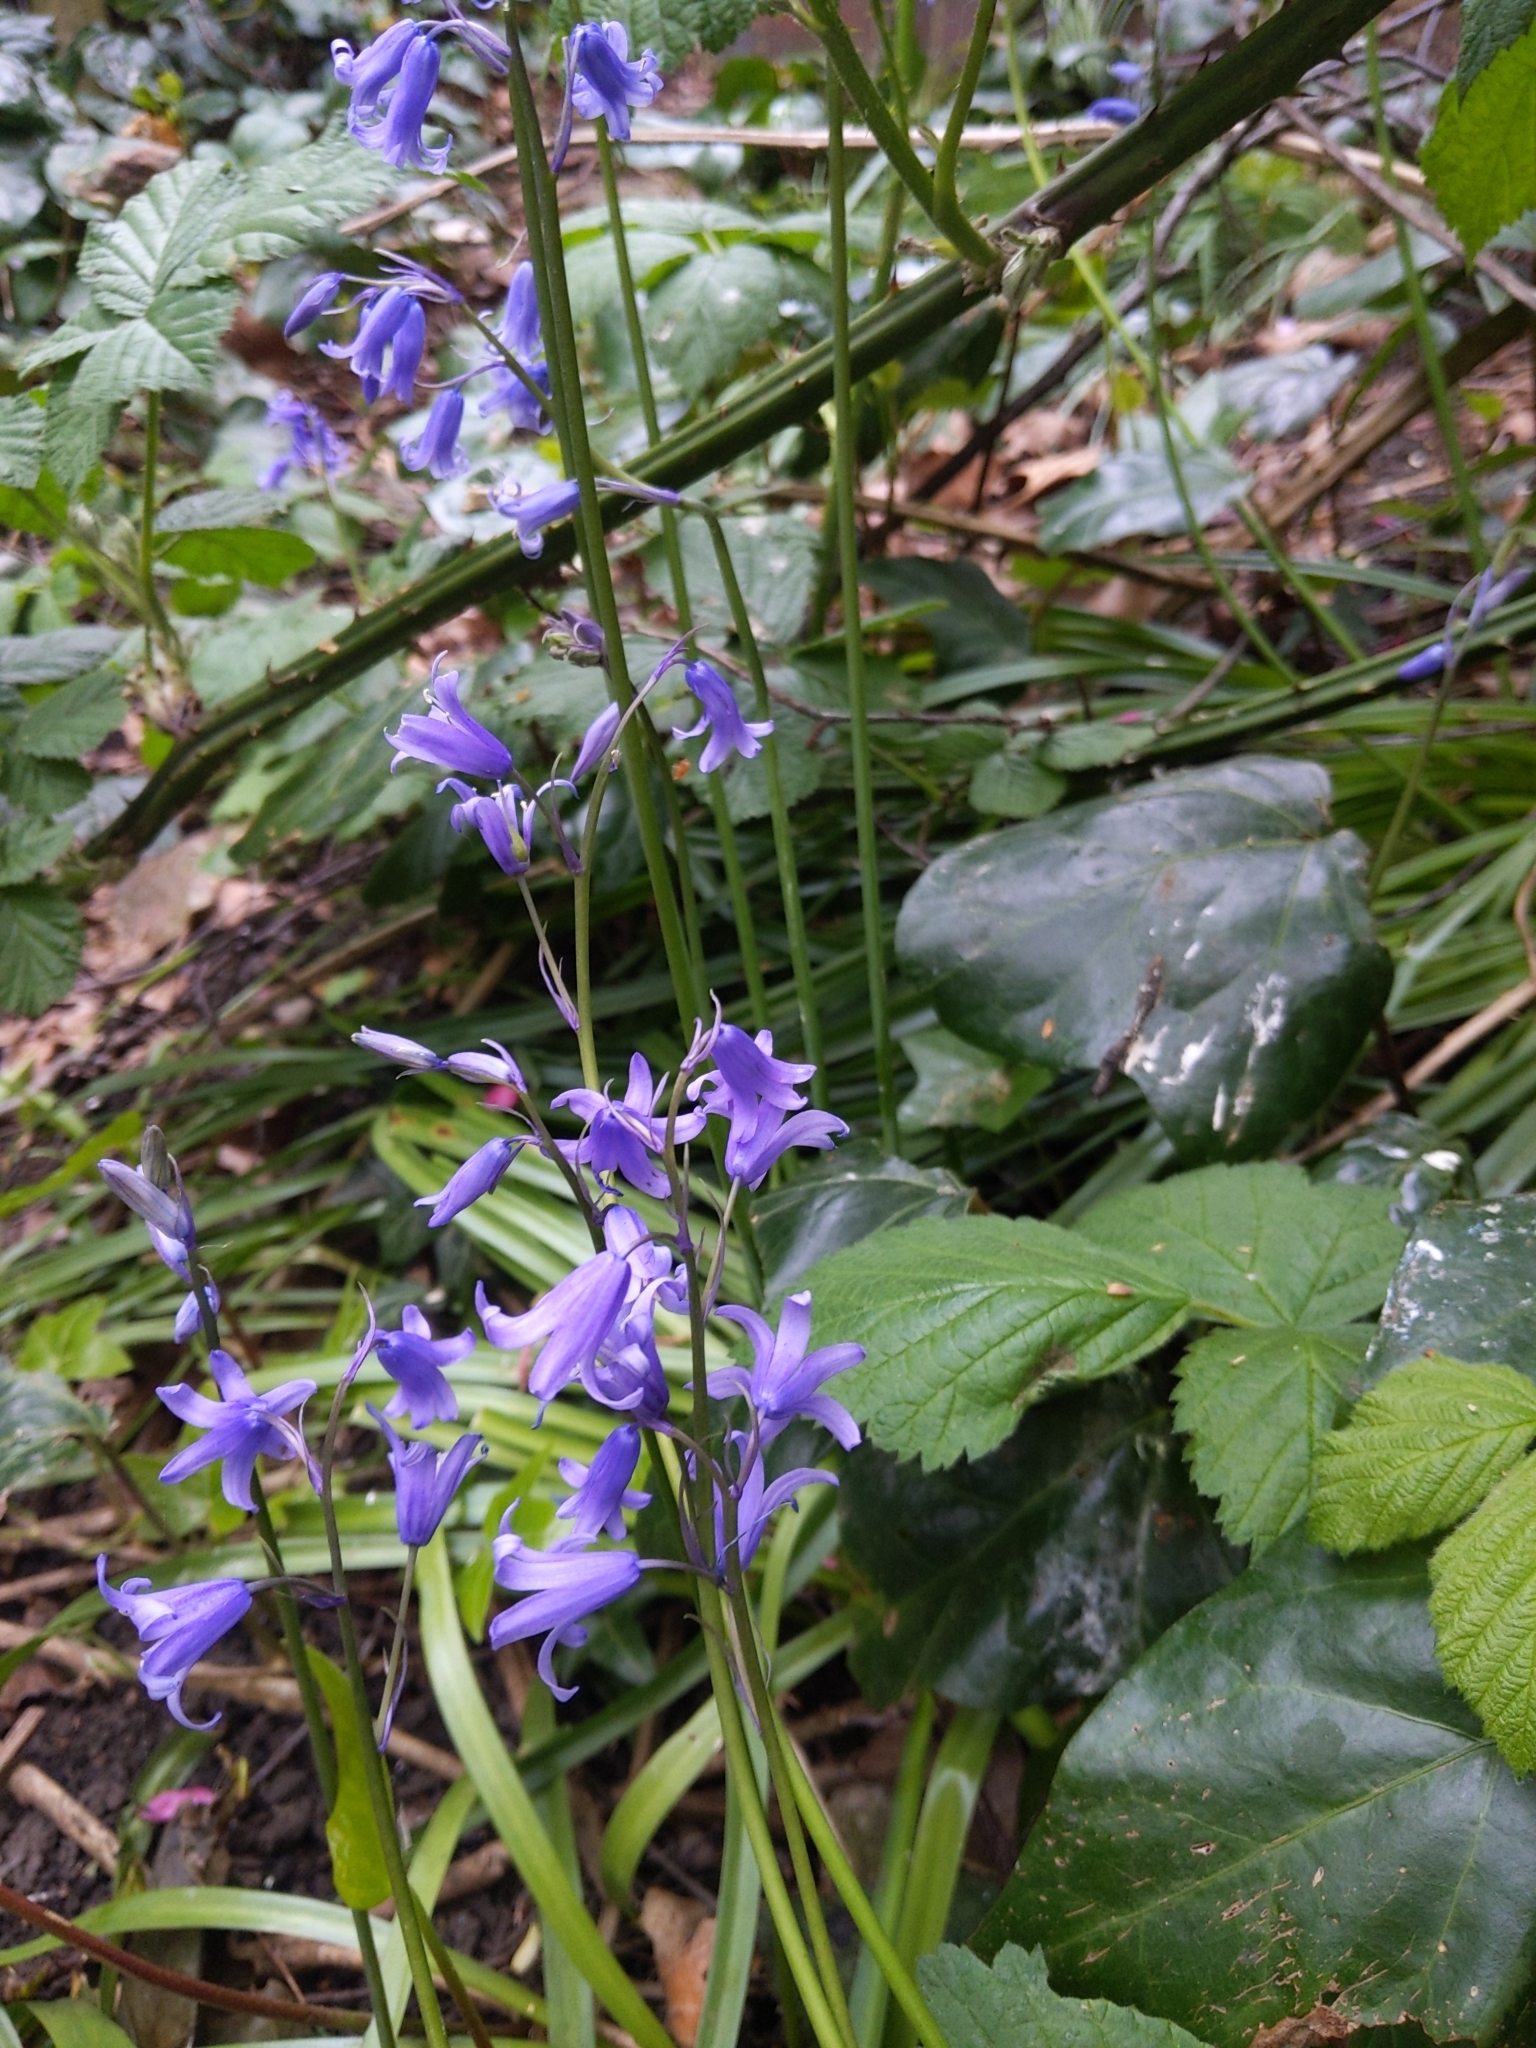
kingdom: Plantae
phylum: Tracheophyta
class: Liliopsida
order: Asparagales
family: Asparagaceae
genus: Hyacinthoides
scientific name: Hyacinthoides massartiana
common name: Hyacinthoides
